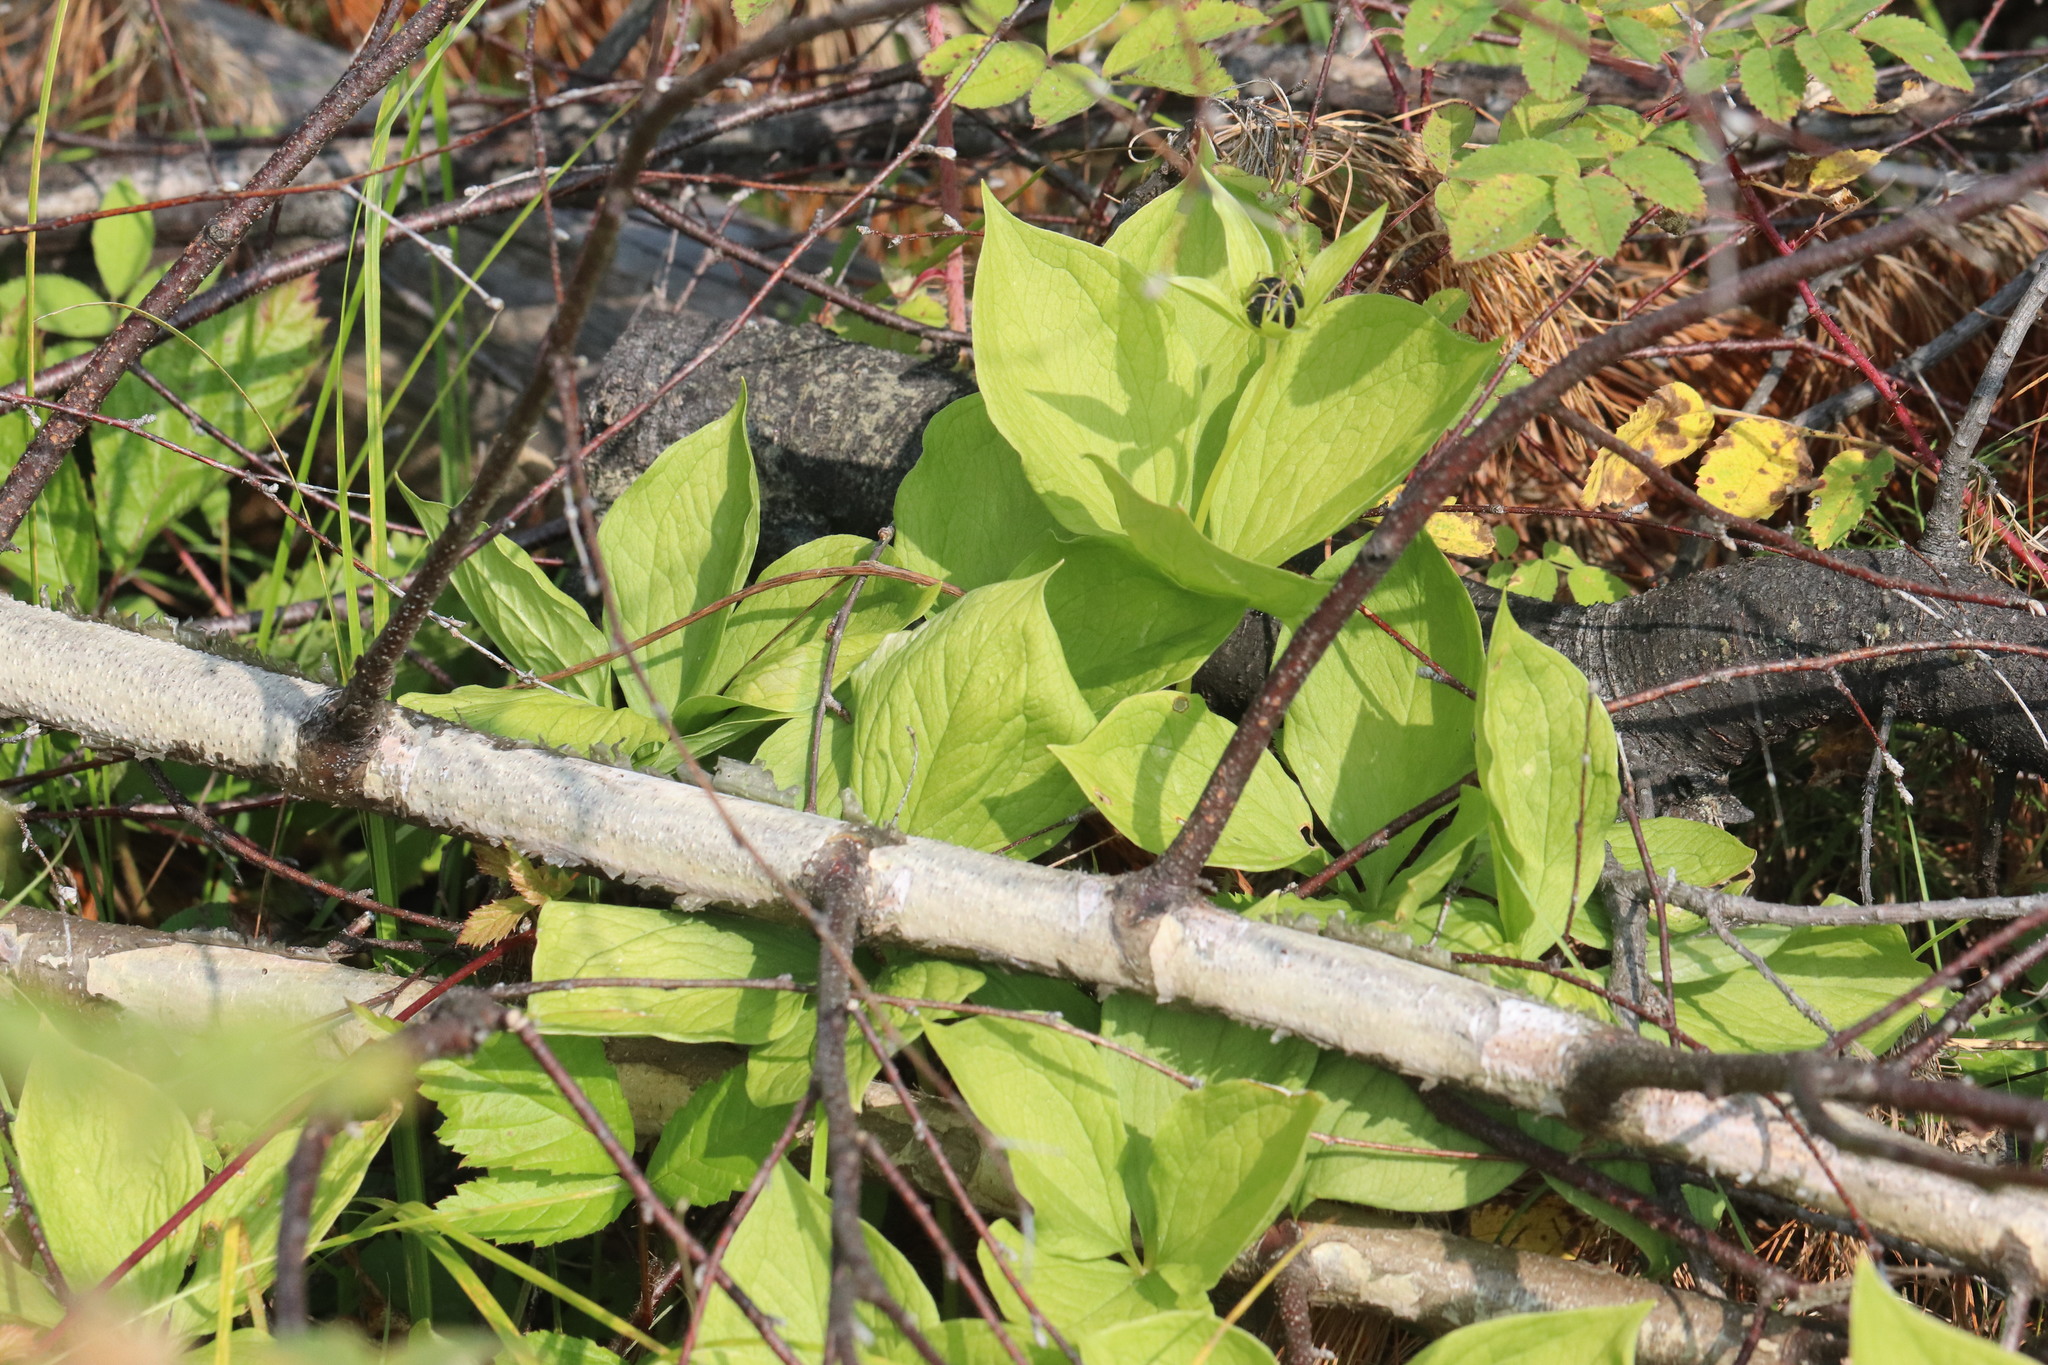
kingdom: Plantae
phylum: Tracheophyta
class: Liliopsida
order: Liliales
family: Melanthiaceae
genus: Paris
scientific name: Paris quadrifolia
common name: Herb-paris
